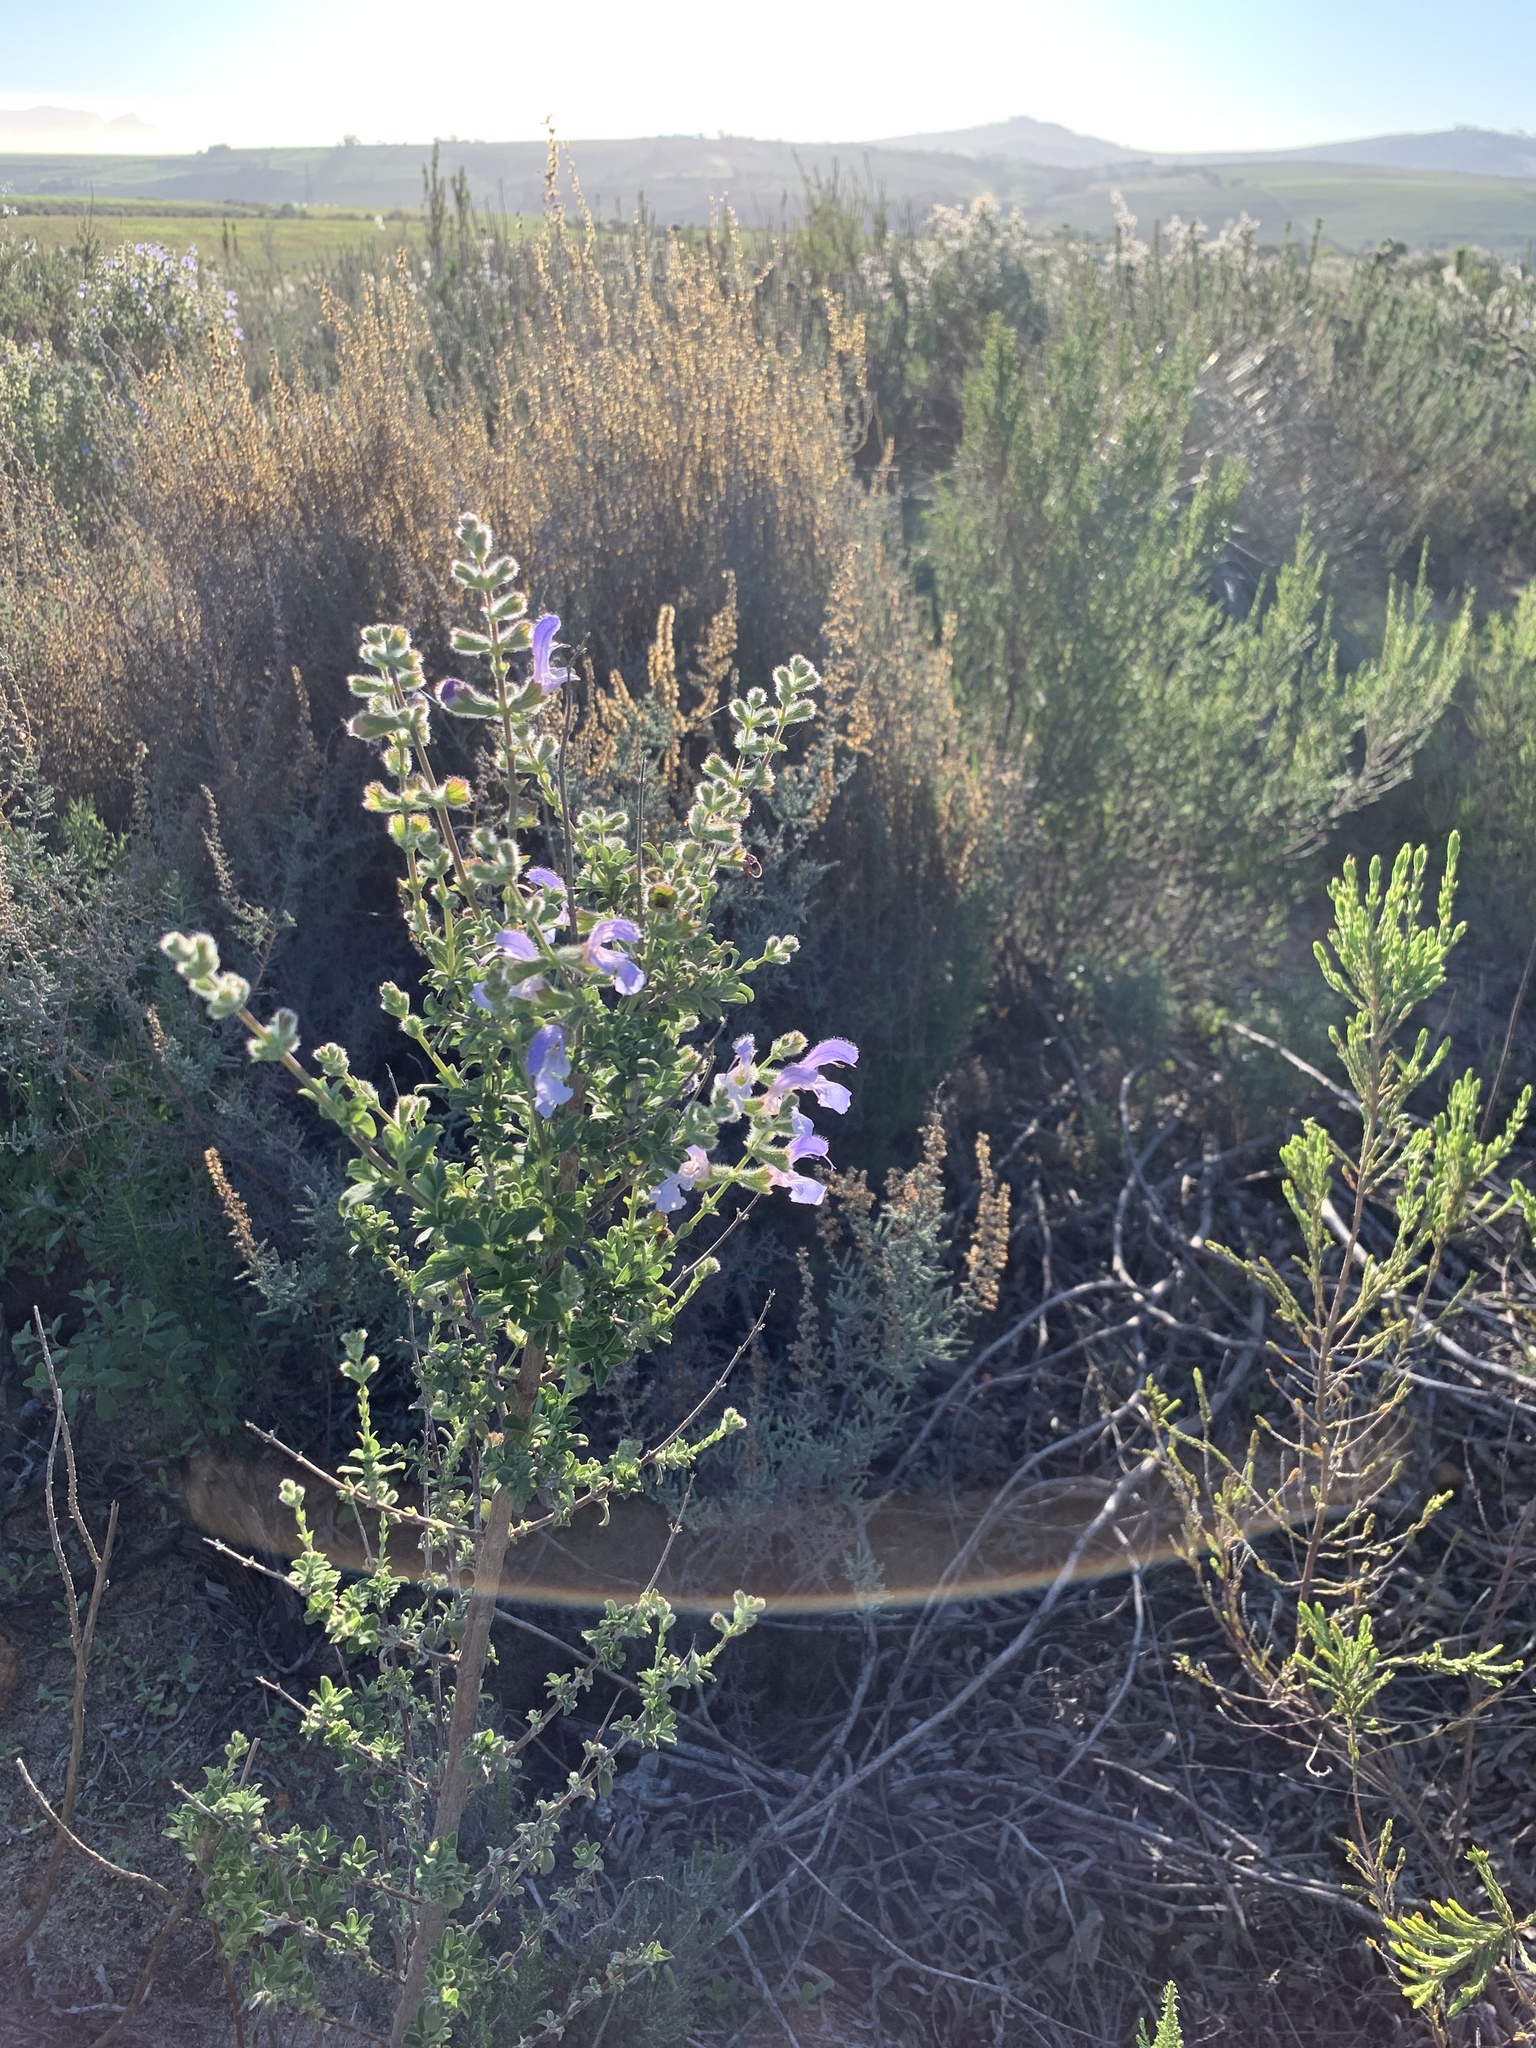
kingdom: Plantae
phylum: Tracheophyta
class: Magnoliopsida
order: Lamiales
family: Lamiaceae
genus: Salvia
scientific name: Salvia africana
